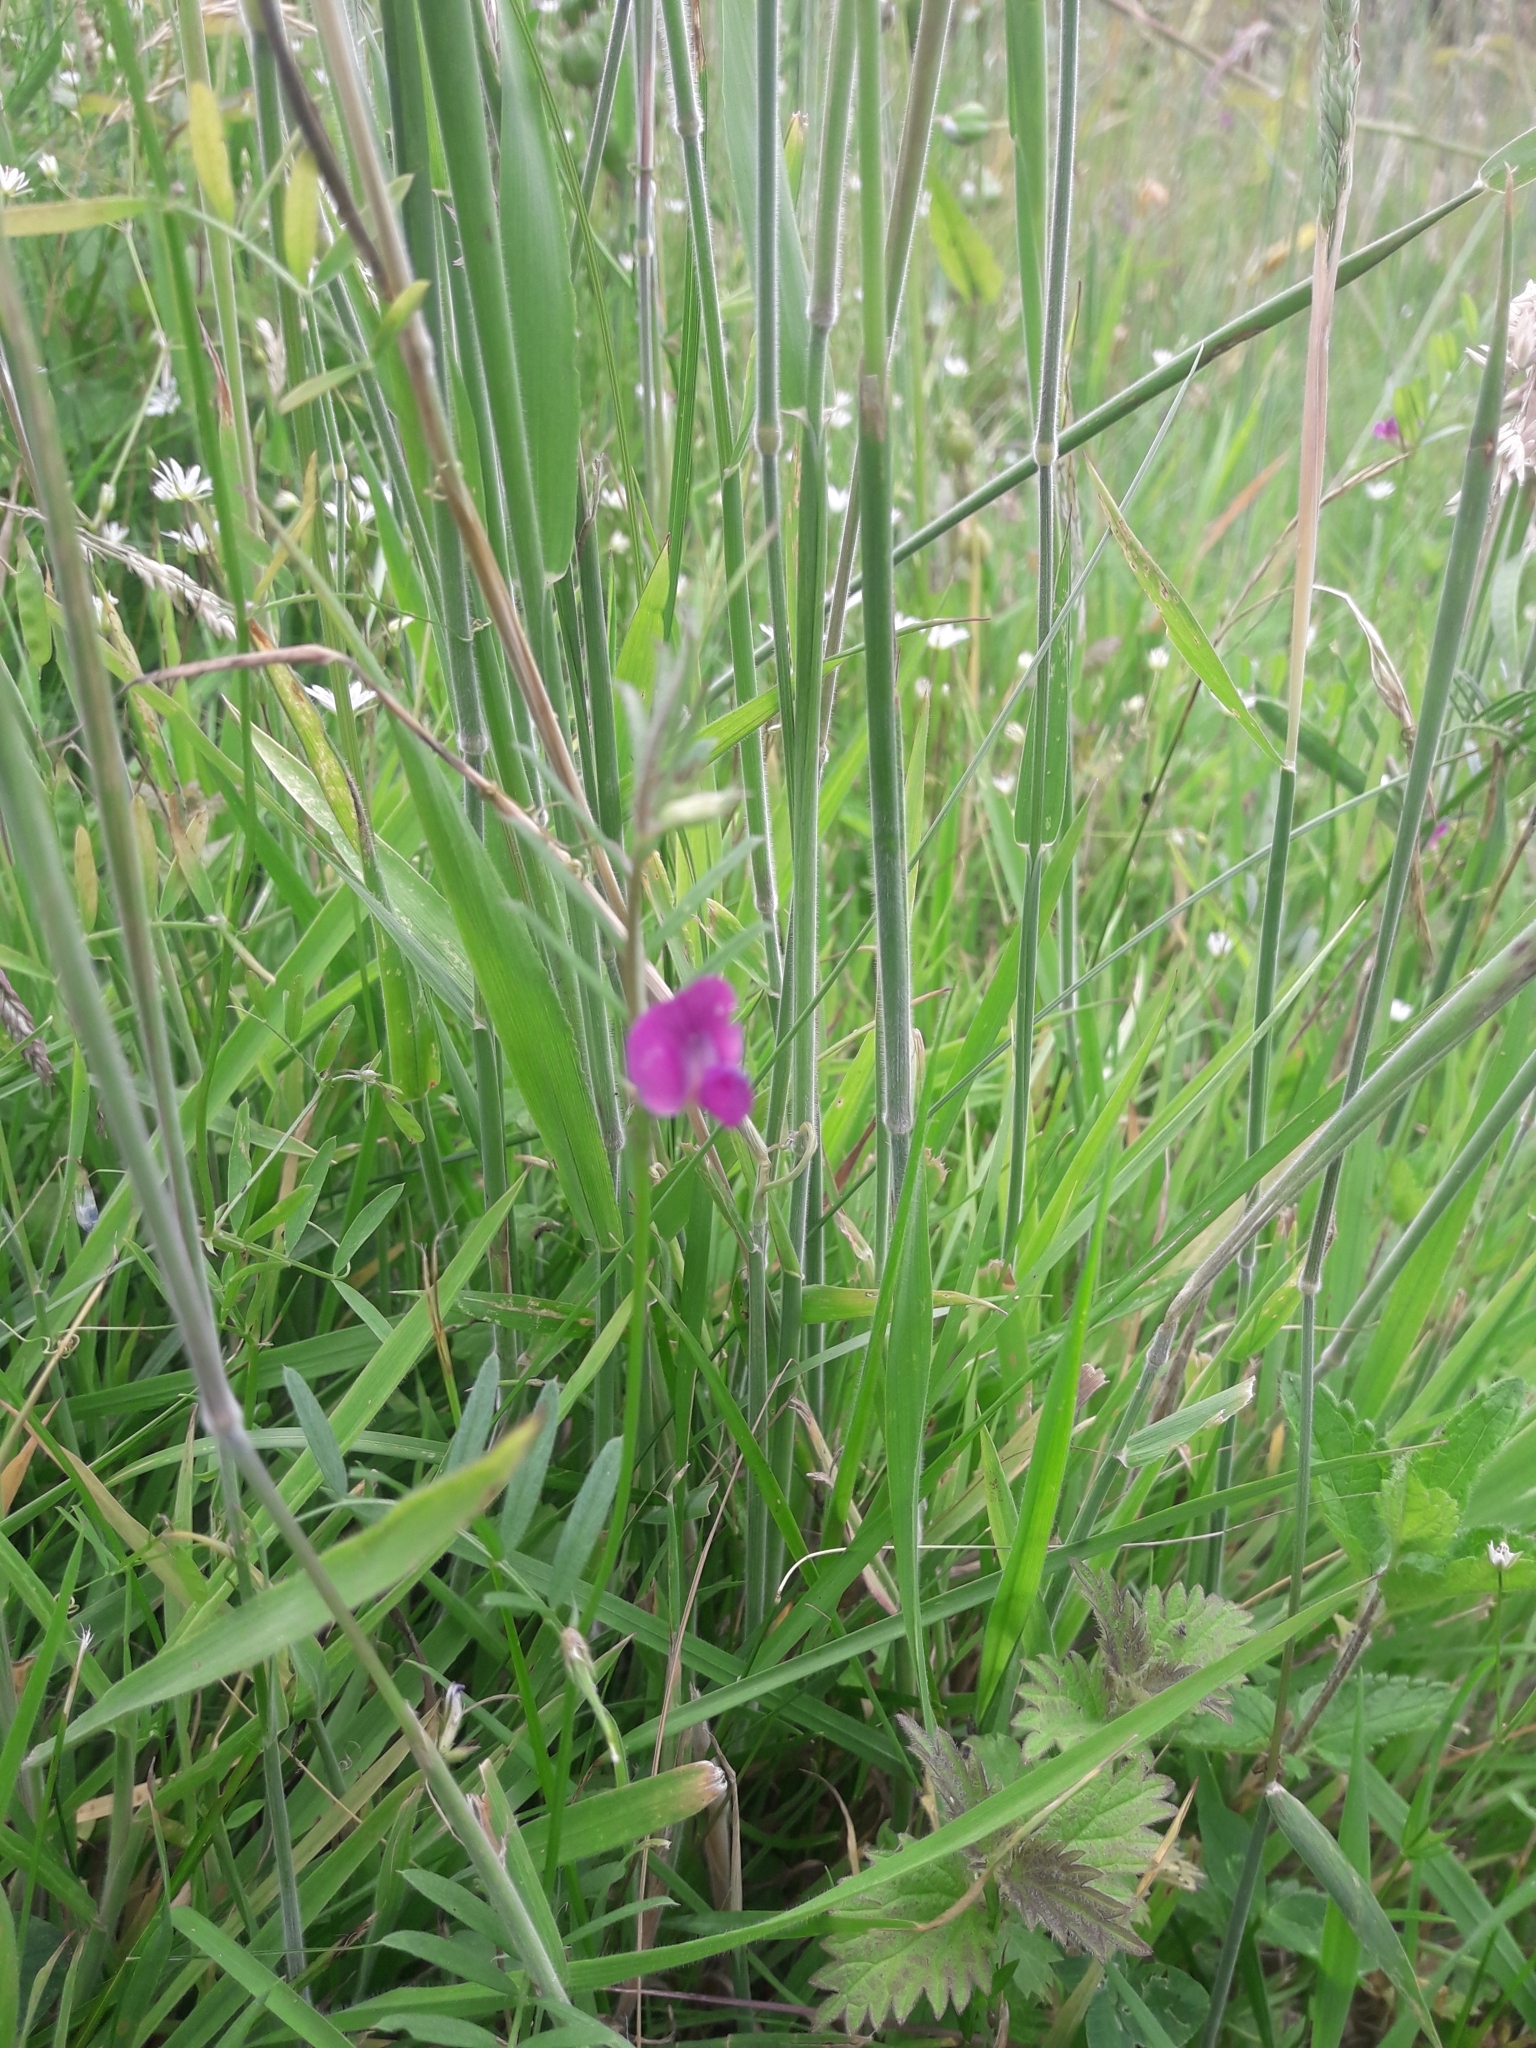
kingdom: Plantae
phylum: Tracheophyta
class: Magnoliopsida
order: Fabales
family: Fabaceae
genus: Vicia
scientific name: Vicia sativa
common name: Garden vetch
